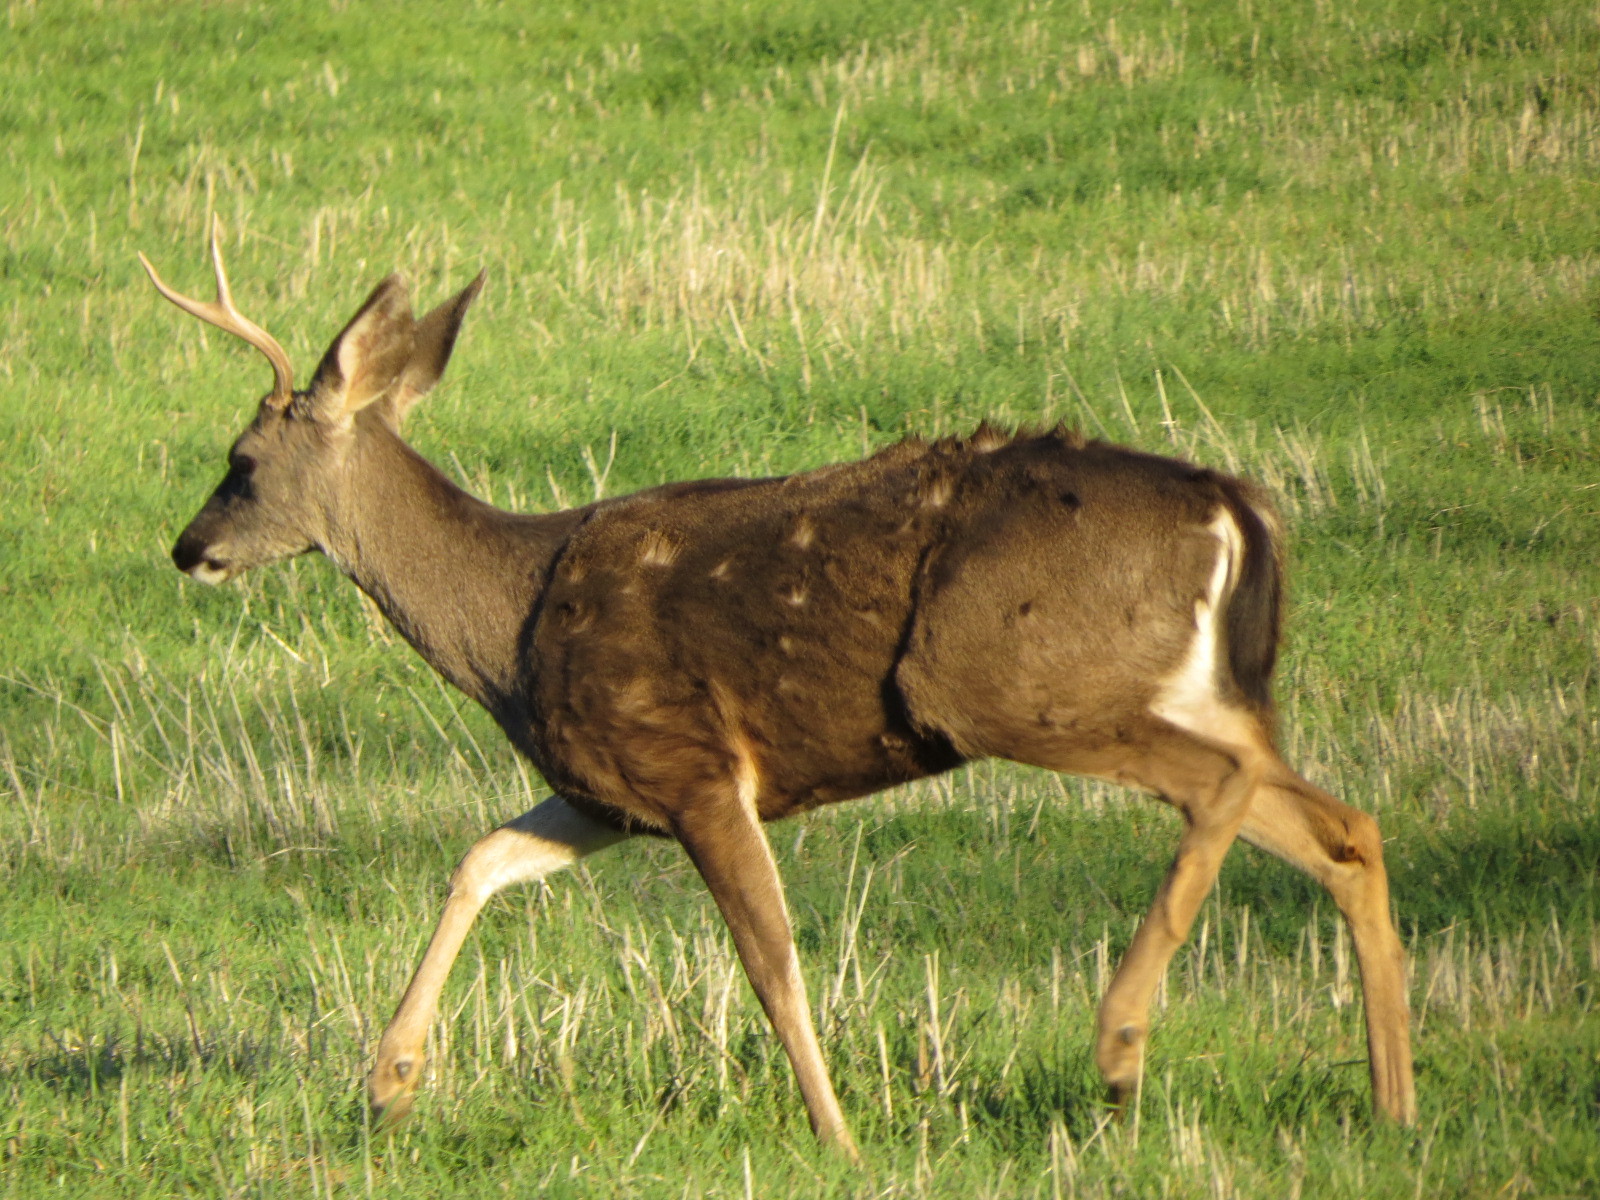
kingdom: Animalia
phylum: Chordata
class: Mammalia
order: Artiodactyla
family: Cervidae
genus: Odocoileus
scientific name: Odocoileus hemionus
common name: Mule deer
